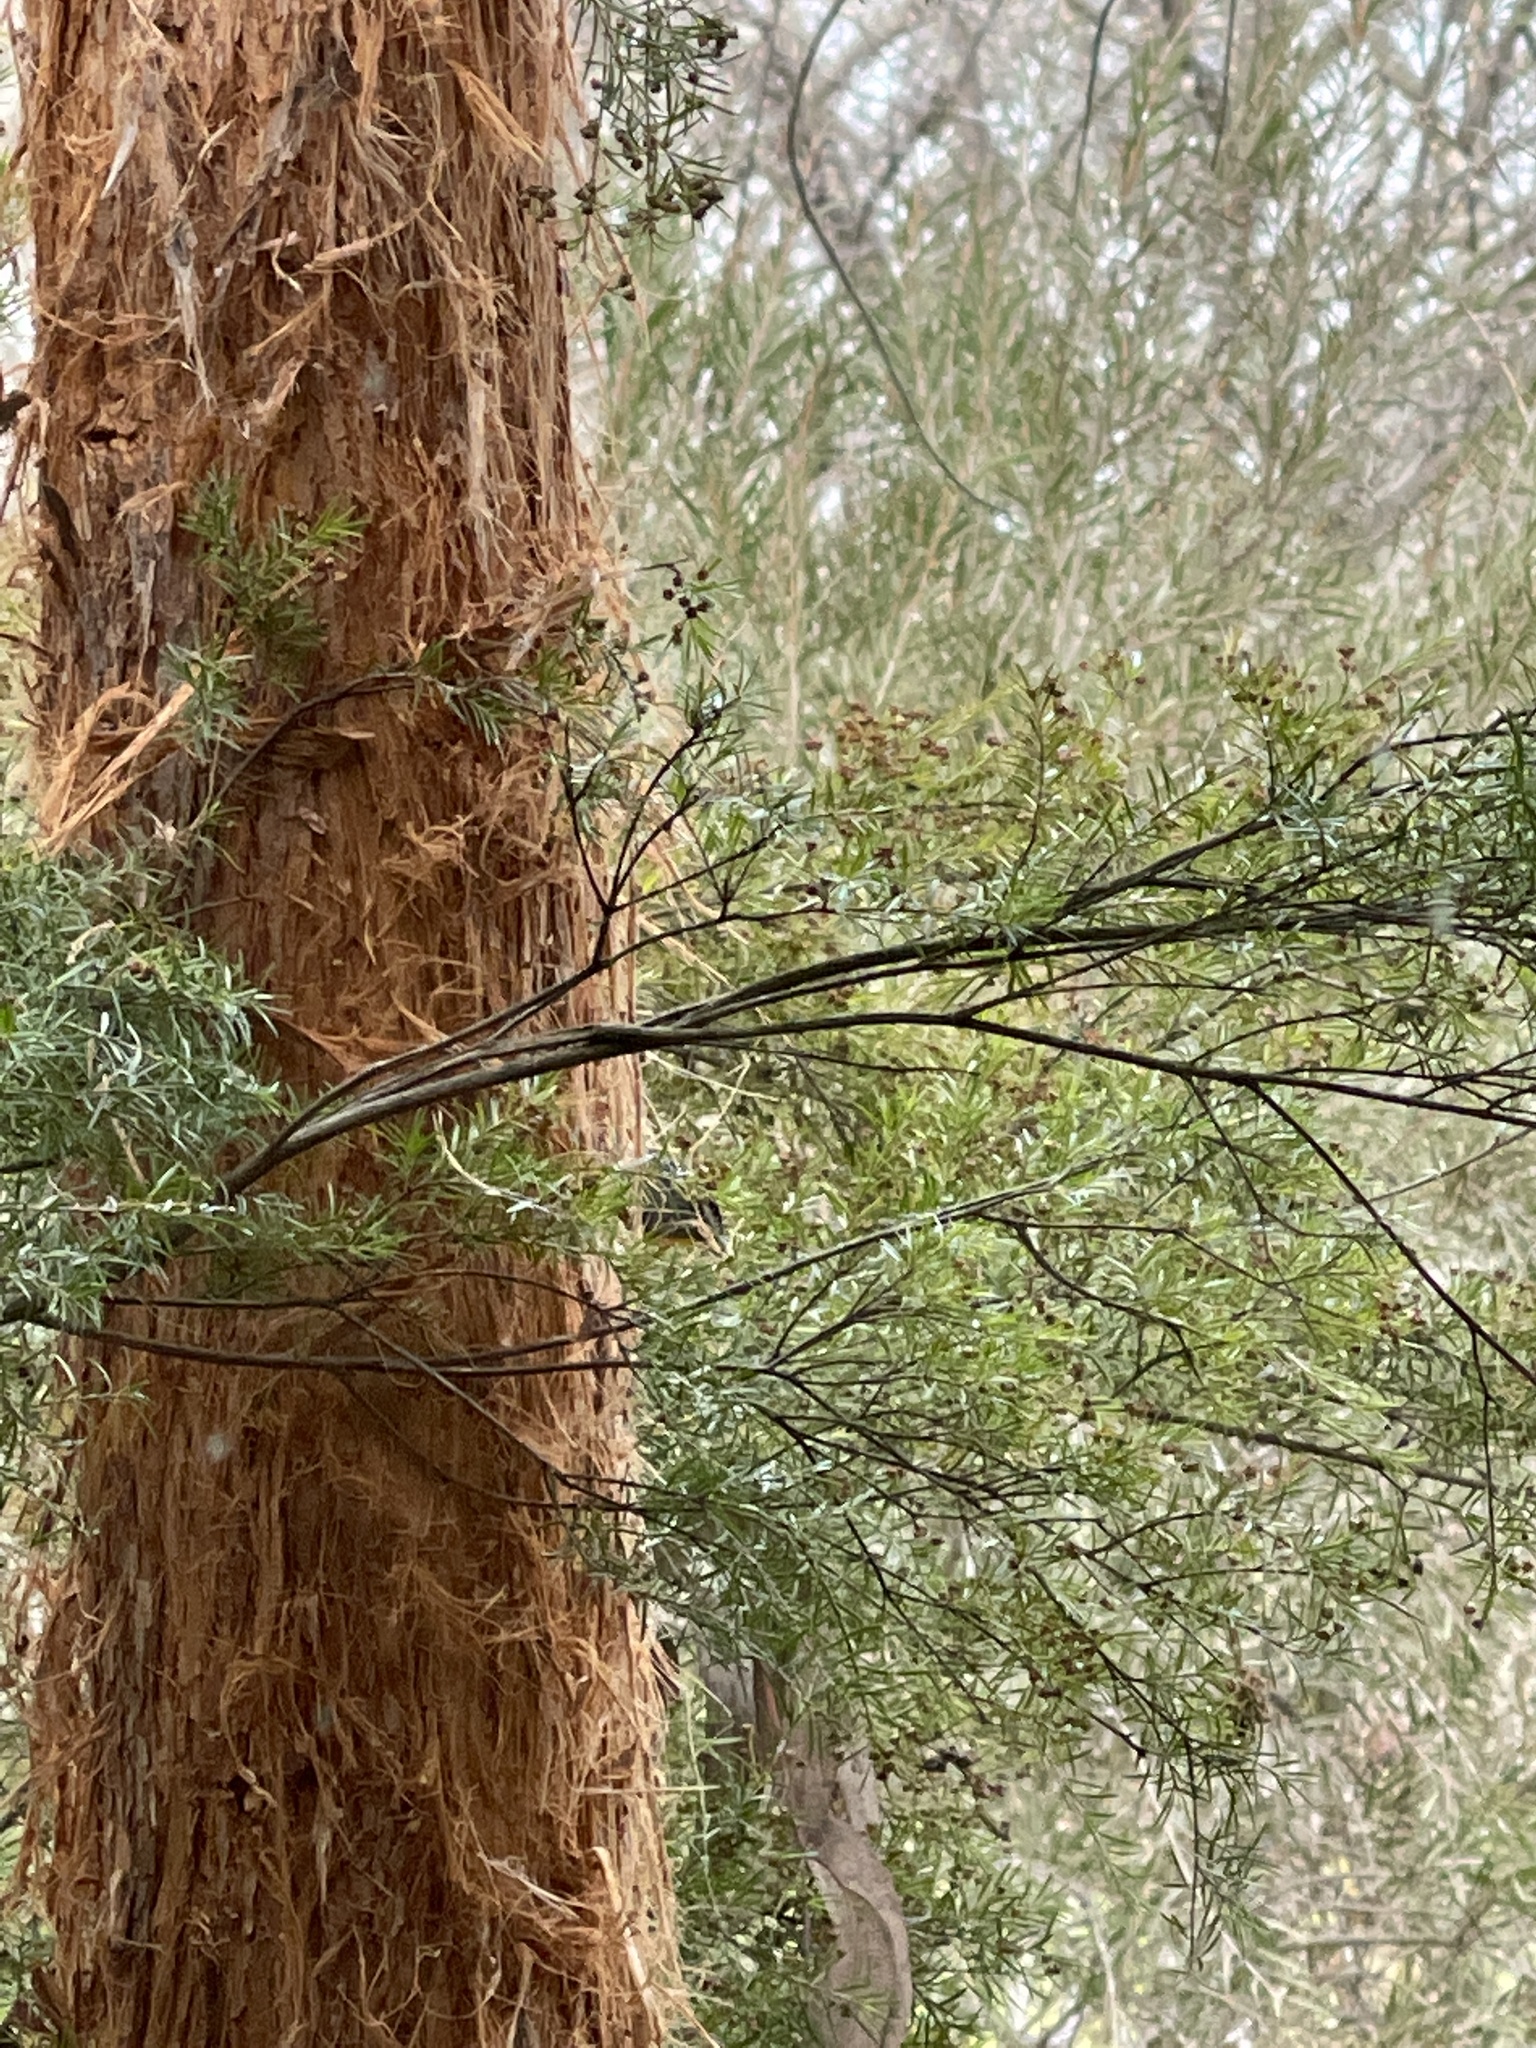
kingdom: Animalia
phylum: Chordata
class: Aves
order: Passeriformes
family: Pardalotidae
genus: Pardalotus
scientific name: Pardalotus punctatus
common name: Spotted pardalote
